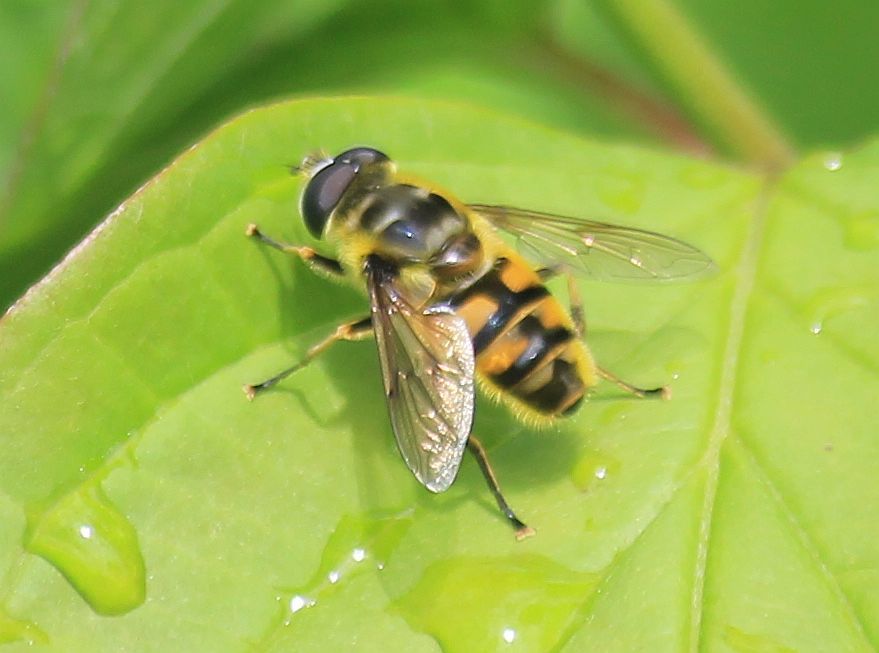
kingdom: Animalia
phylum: Arthropoda
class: Insecta
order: Diptera
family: Syrphidae
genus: Myathropa
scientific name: Myathropa florea
